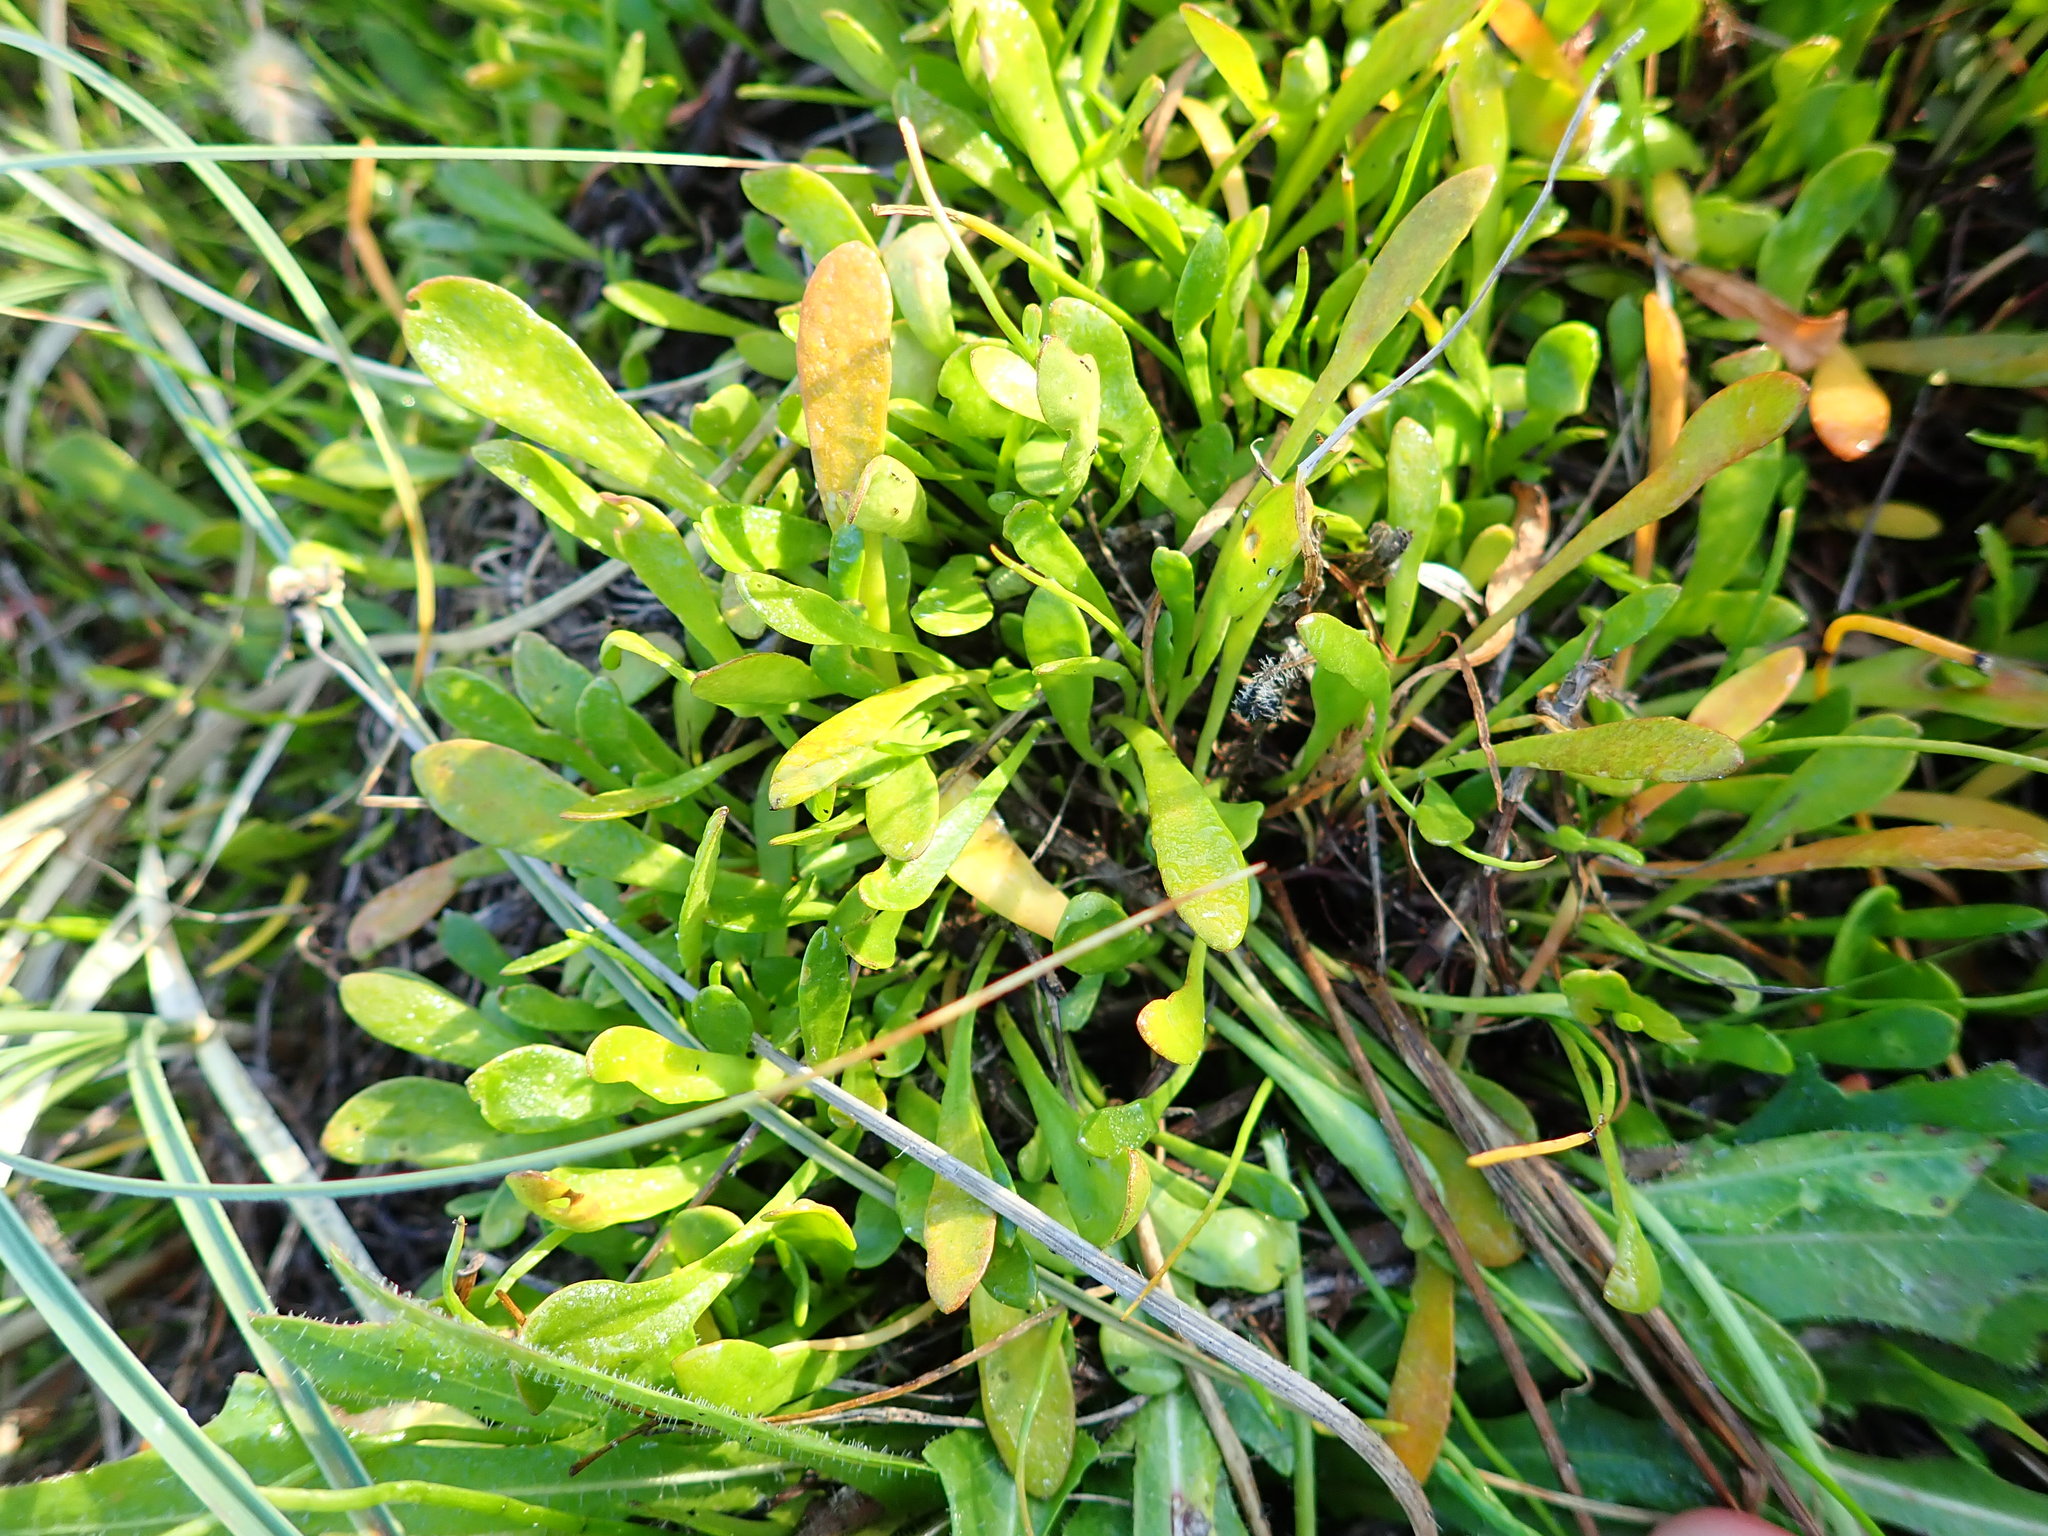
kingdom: Plantae
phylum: Tracheophyta
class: Magnoliopsida
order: Asterales
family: Goodeniaceae
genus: Goodenia
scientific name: Goodenia radicans
